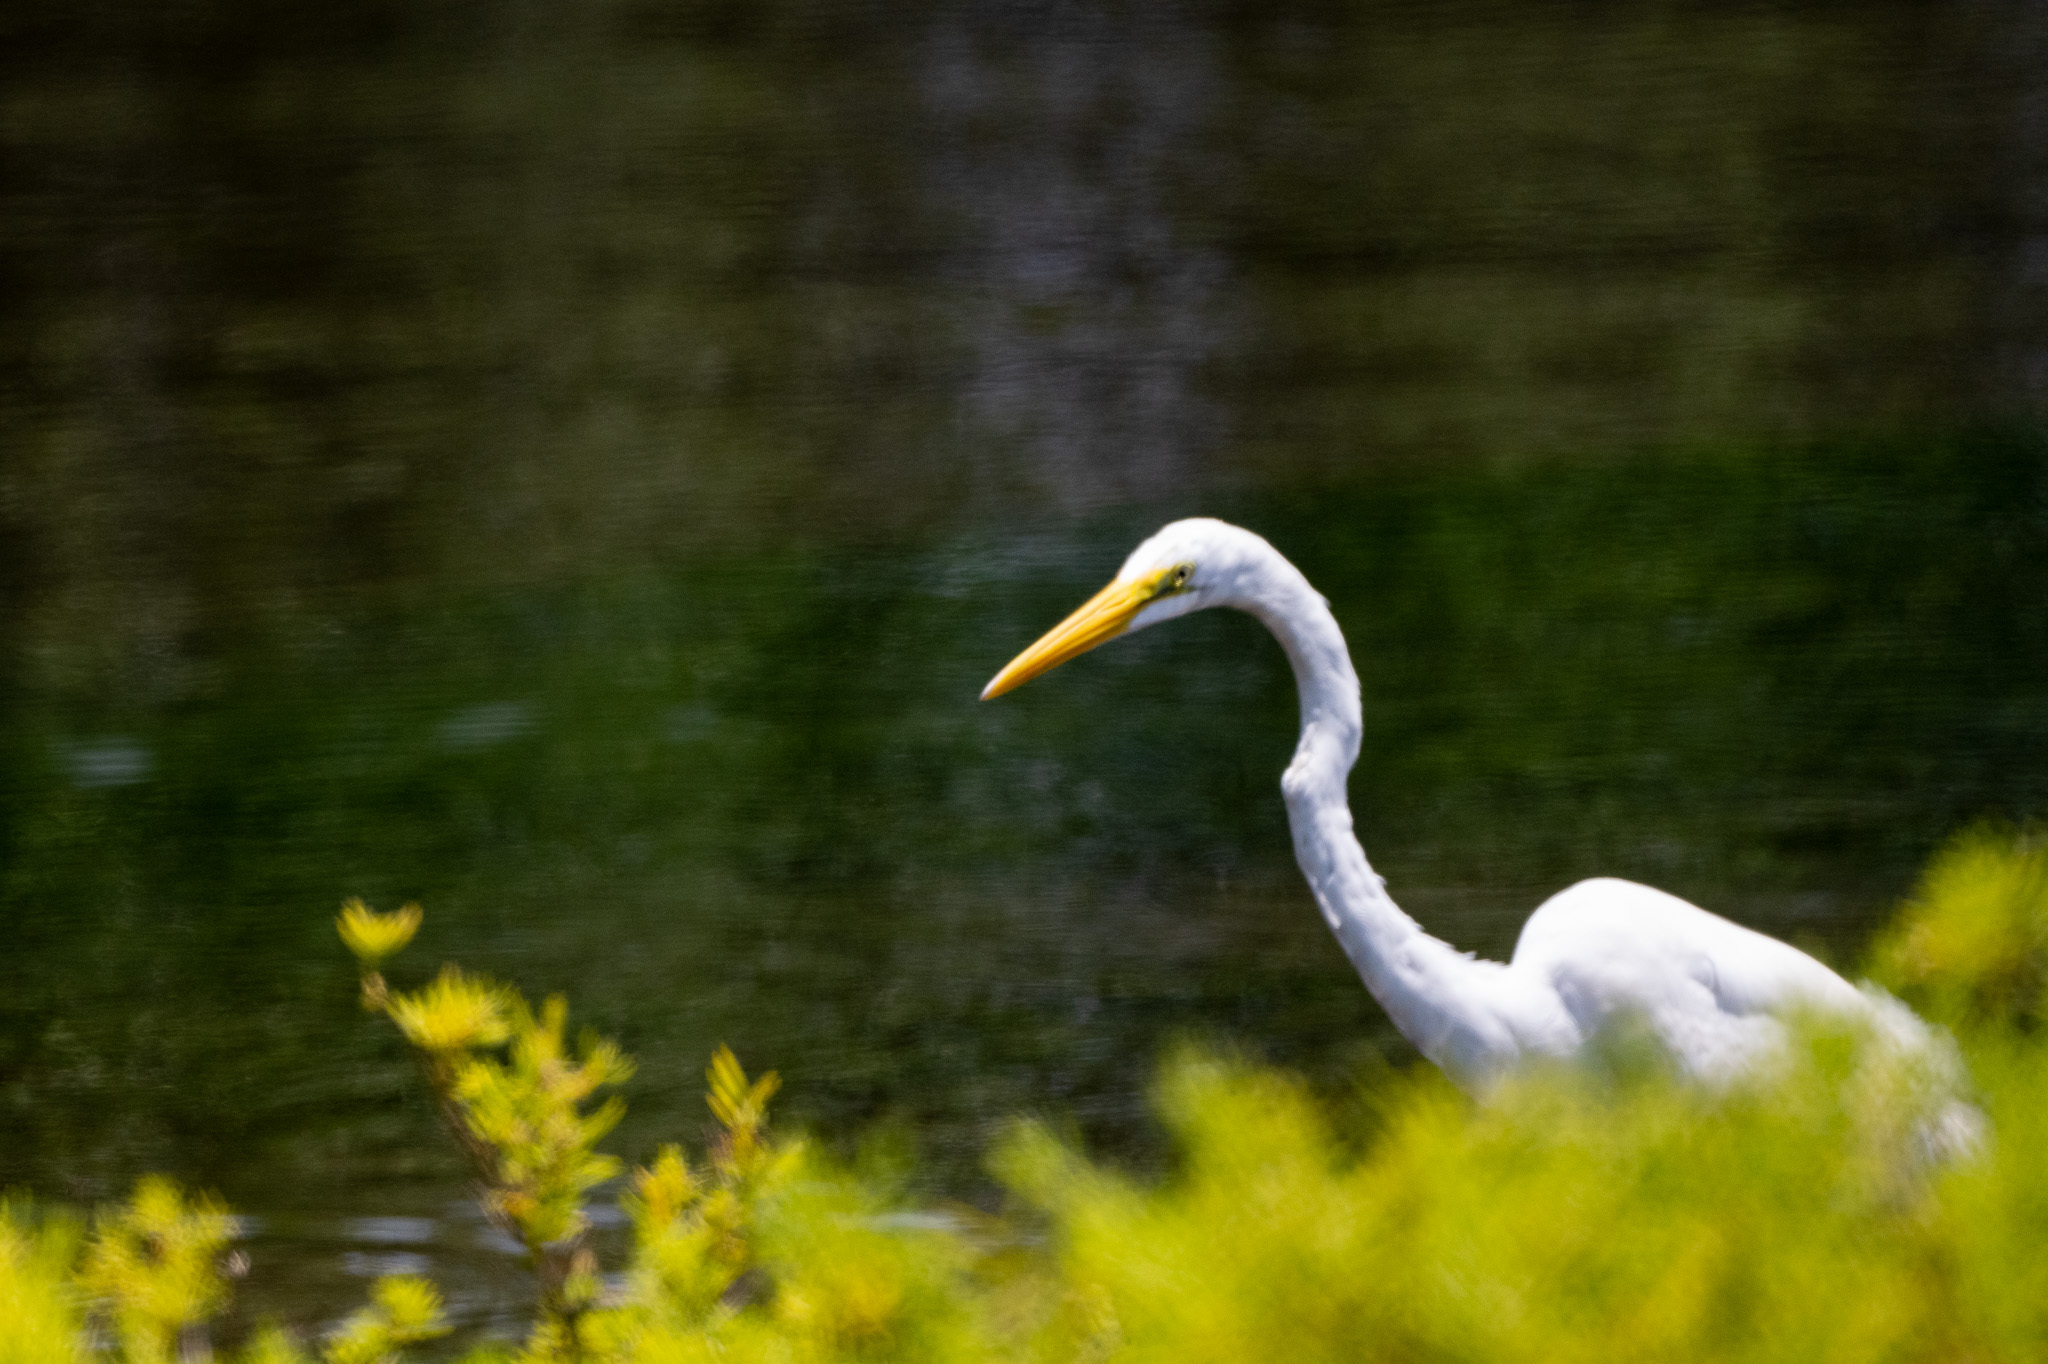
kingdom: Animalia
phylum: Chordata
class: Aves
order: Pelecaniformes
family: Ardeidae
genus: Ardea
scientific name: Ardea alba
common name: Great egret
